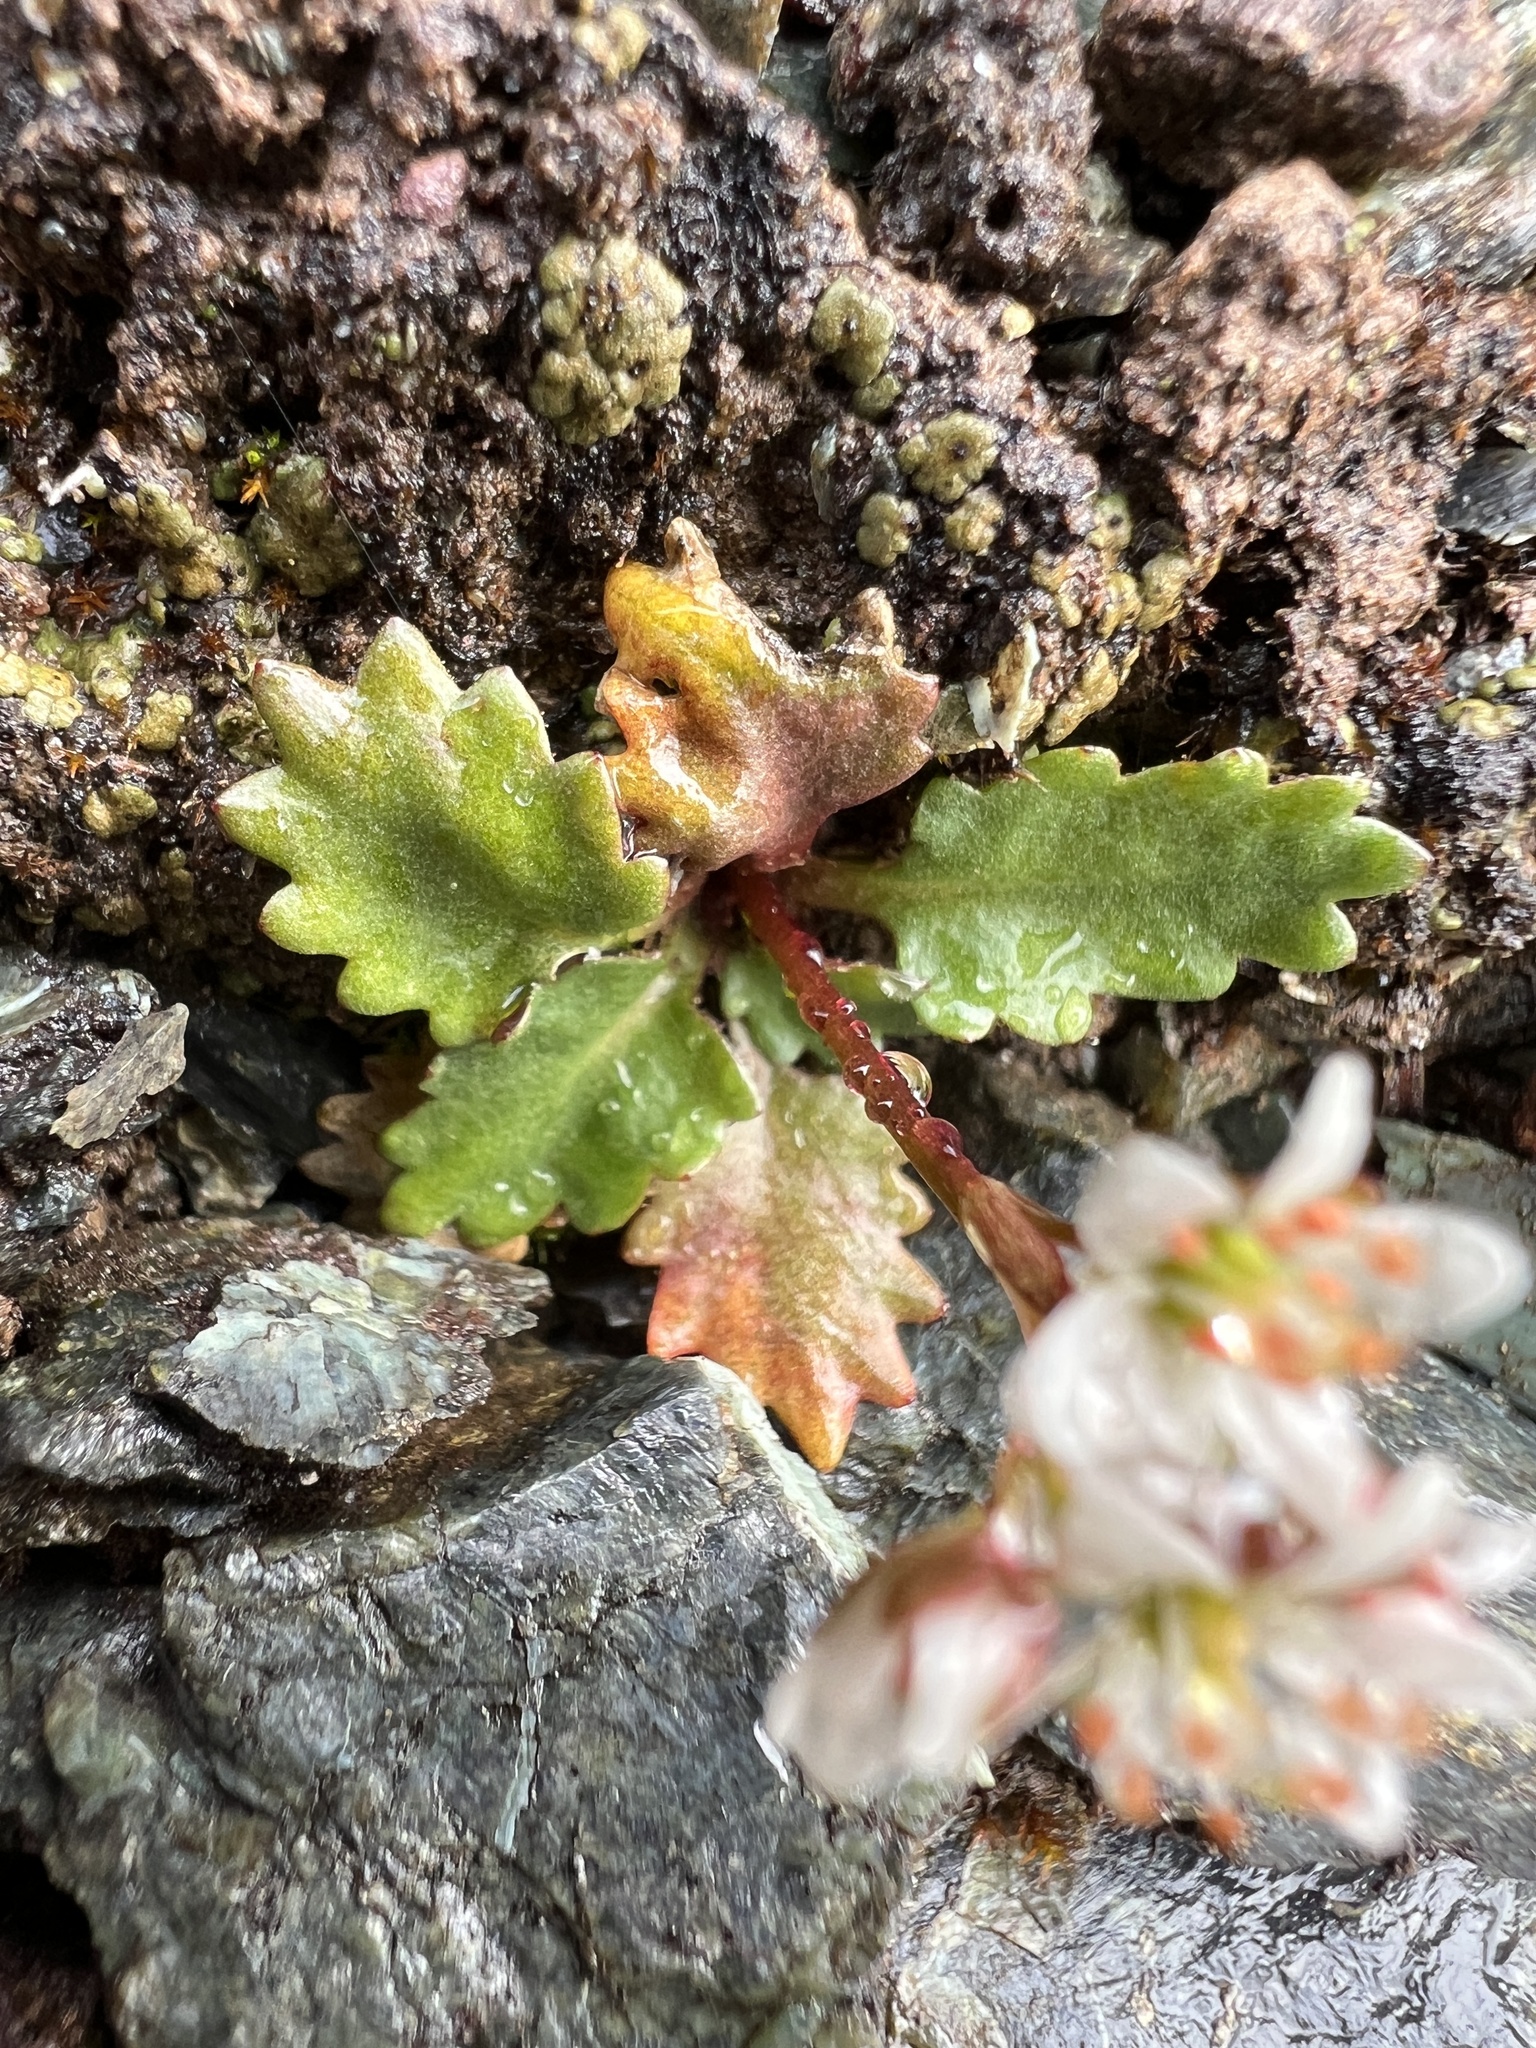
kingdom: Plantae
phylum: Tracheophyta
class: Magnoliopsida
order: Saxifragales
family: Saxifragaceae
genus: Micranthes
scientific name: Micranthes howellii
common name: Howell's saxifrage
